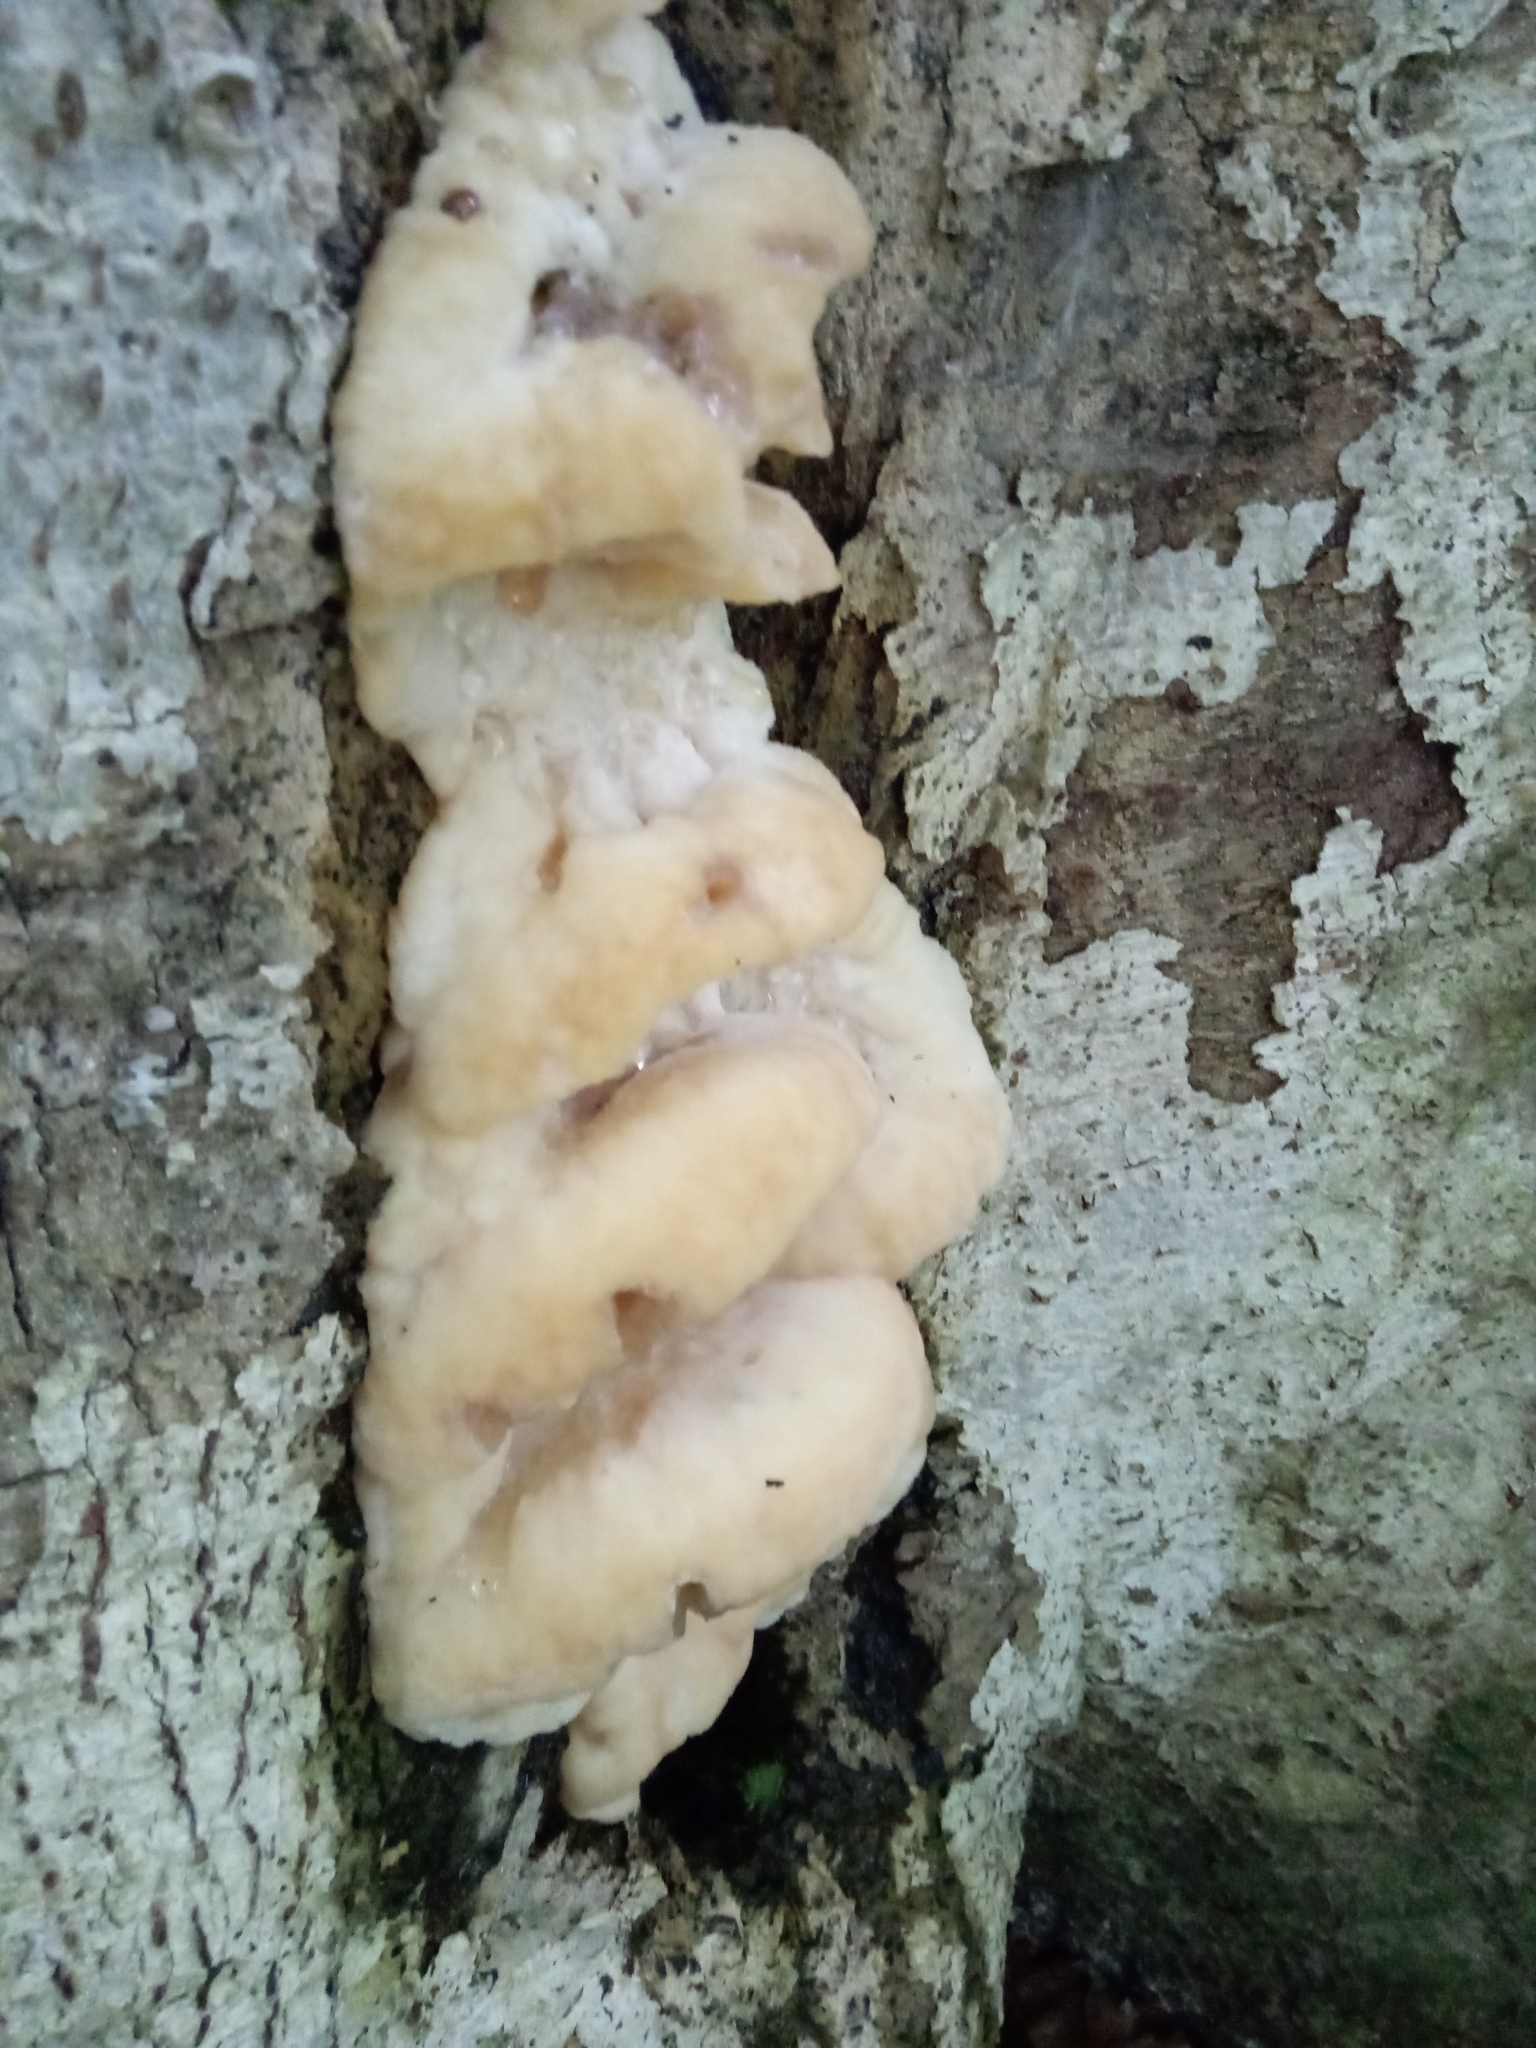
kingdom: Fungi
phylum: Basidiomycota
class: Agaricomycetes
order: Polyporales
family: Meruliaceae
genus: Climacodon
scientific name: Climacodon septentrionalis
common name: Northern tooth
